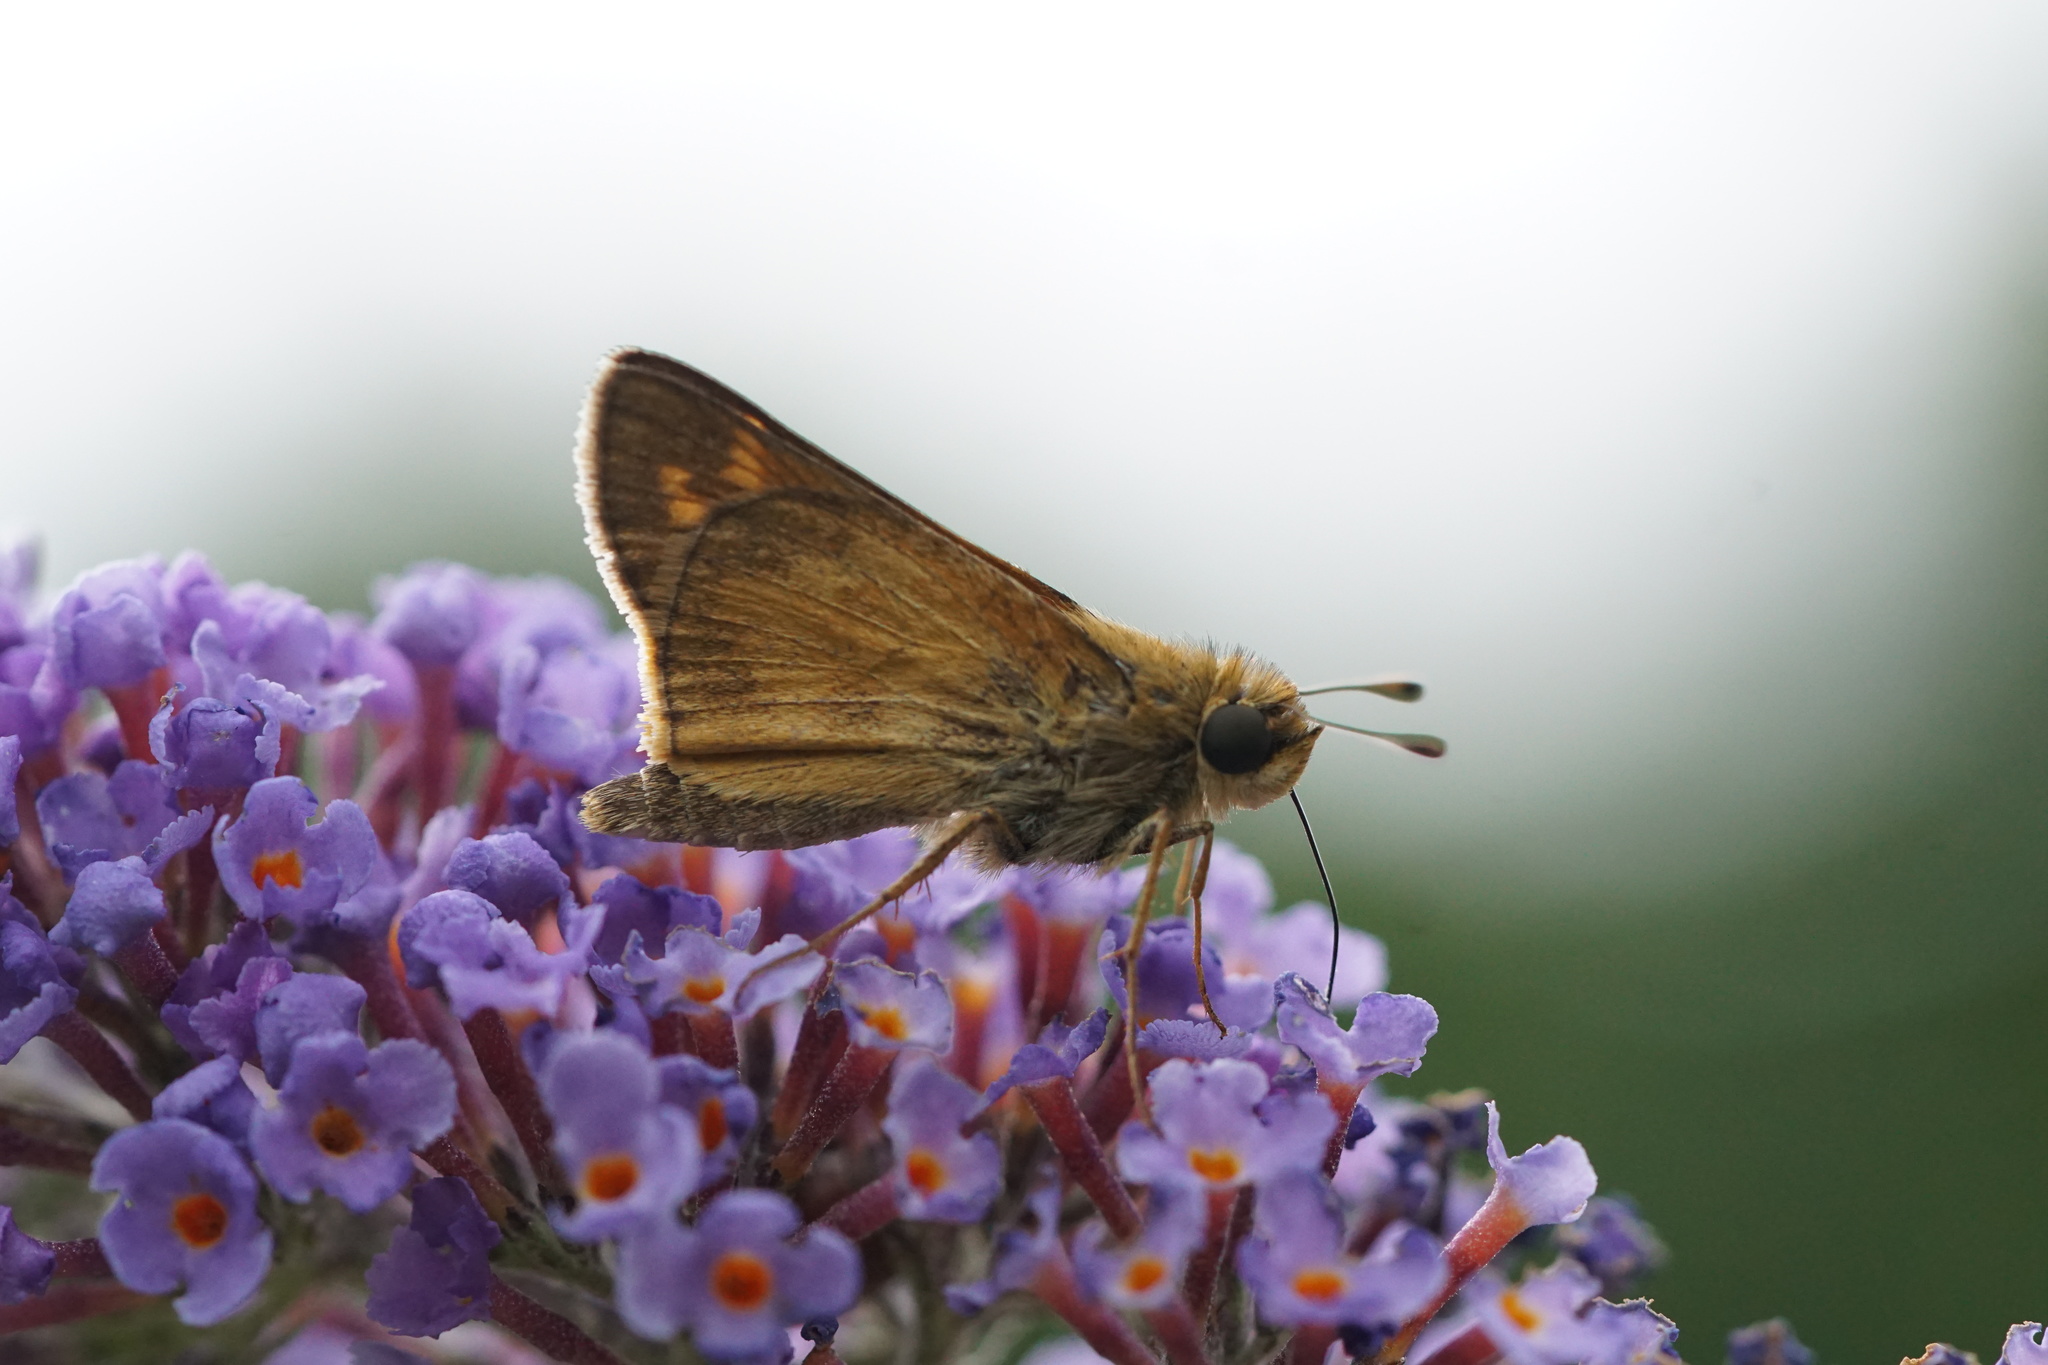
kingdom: Animalia
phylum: Arthropoda
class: Insecta
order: Lepidoptera
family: Hesperiidae
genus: Atalopedes
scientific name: Atalopedes
